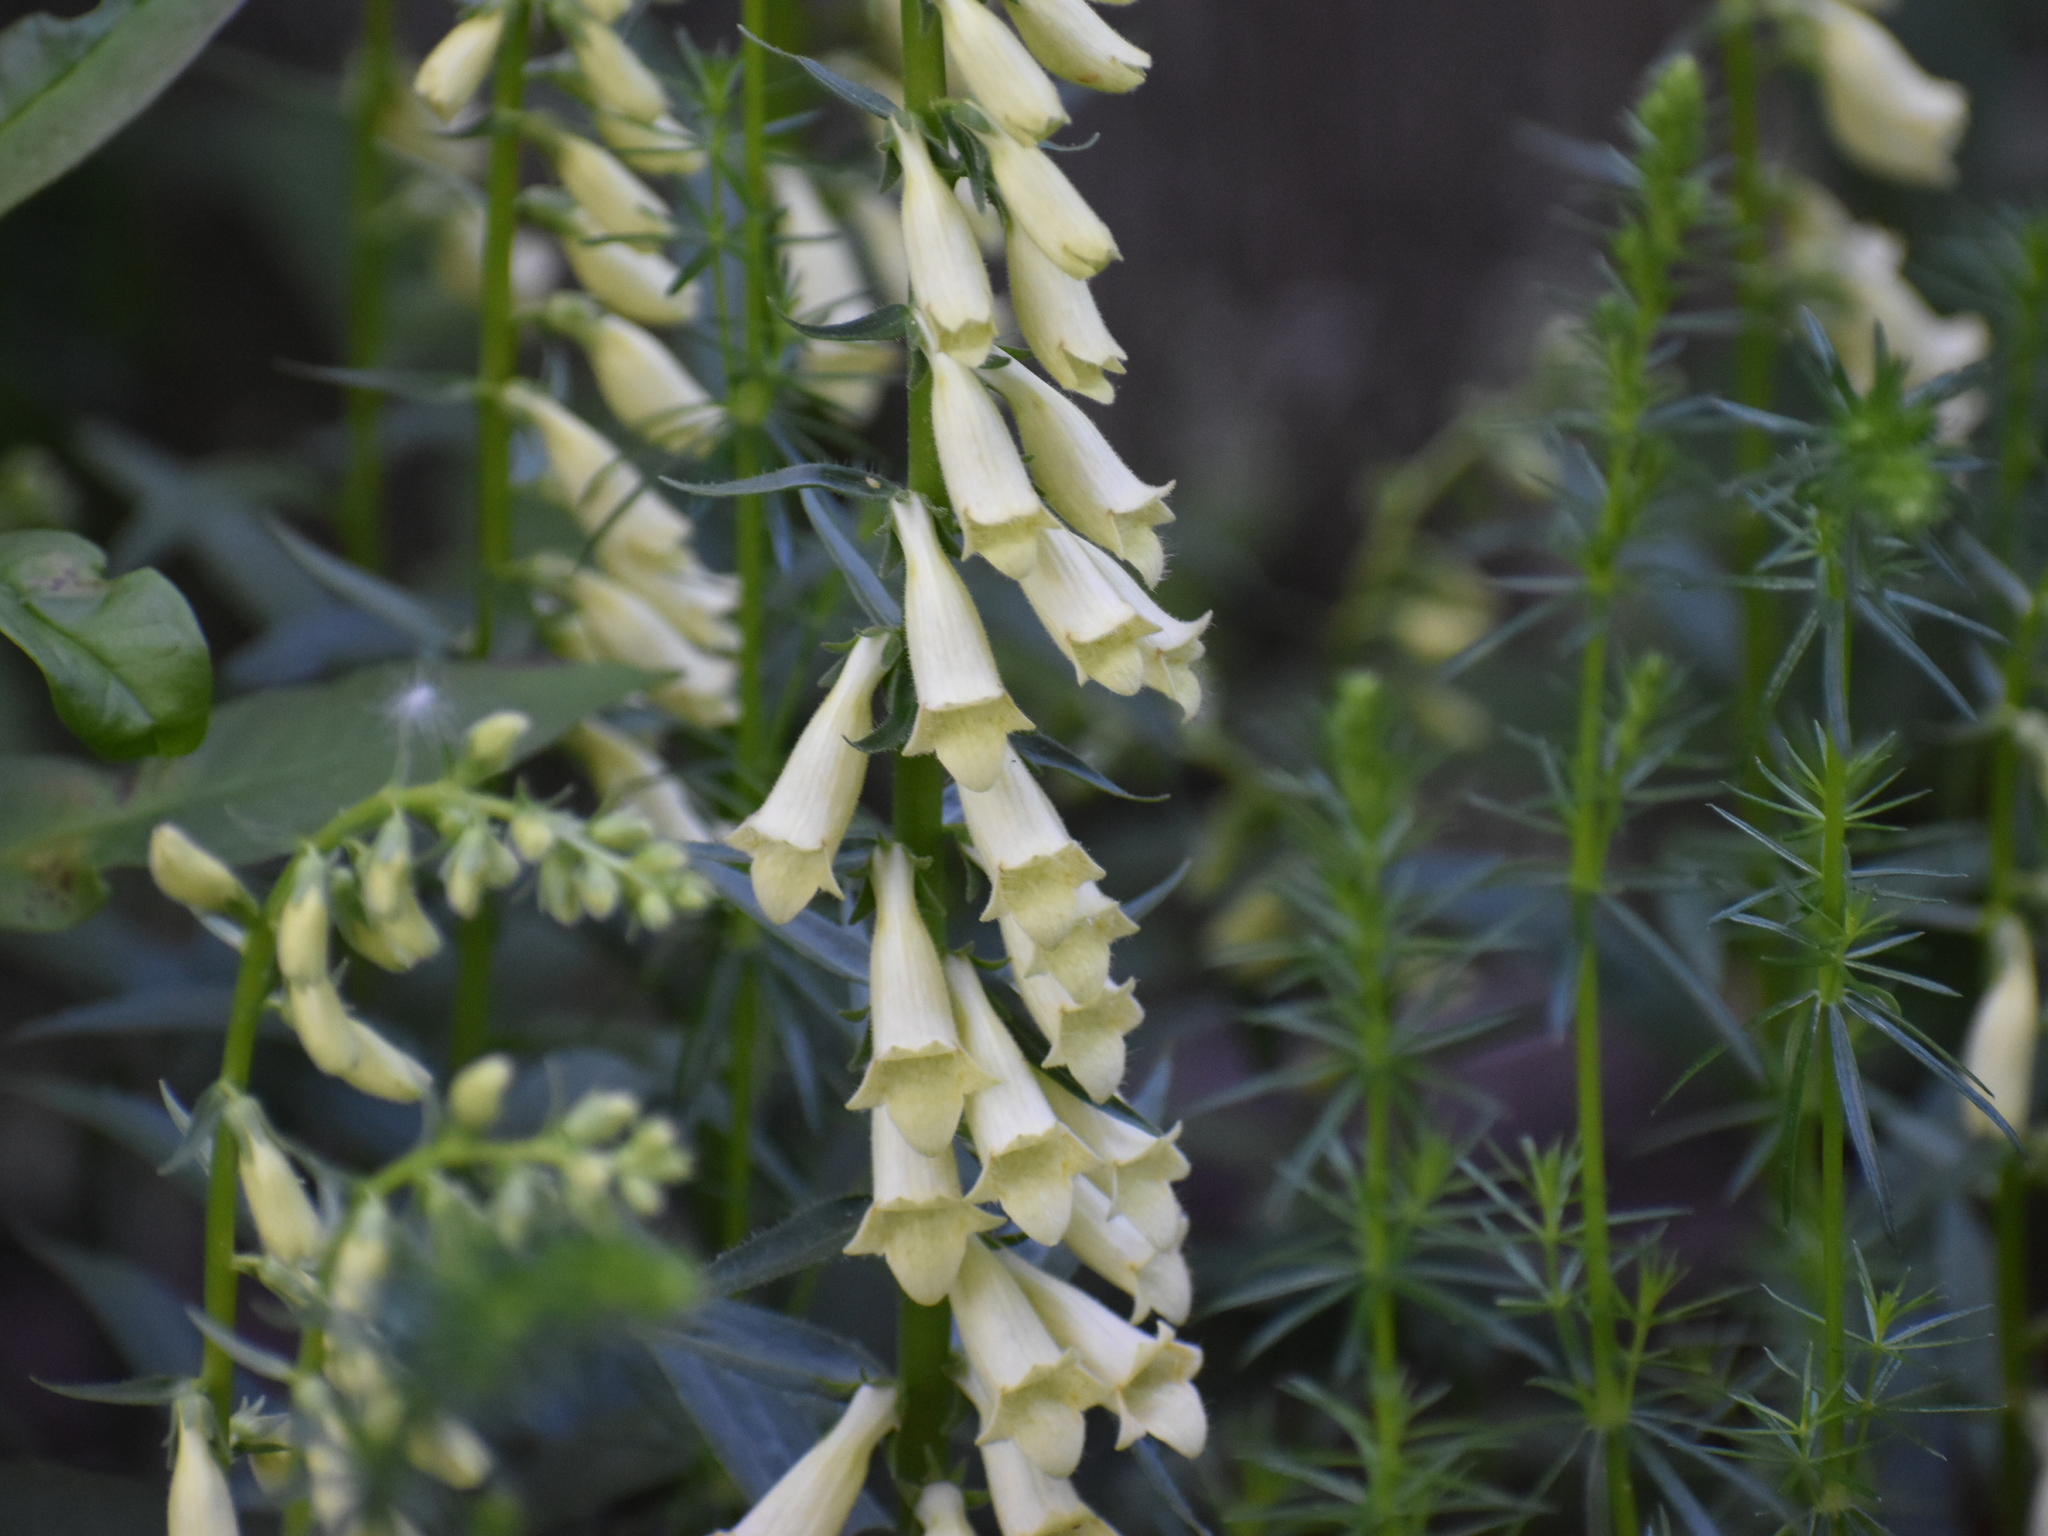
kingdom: Plantae
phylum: Tracheophyta
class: Magnoliopsida
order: Lamiales
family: Plantaginaceae
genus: Digitalis
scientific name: Digitalis lutea
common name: Straw foxglove
